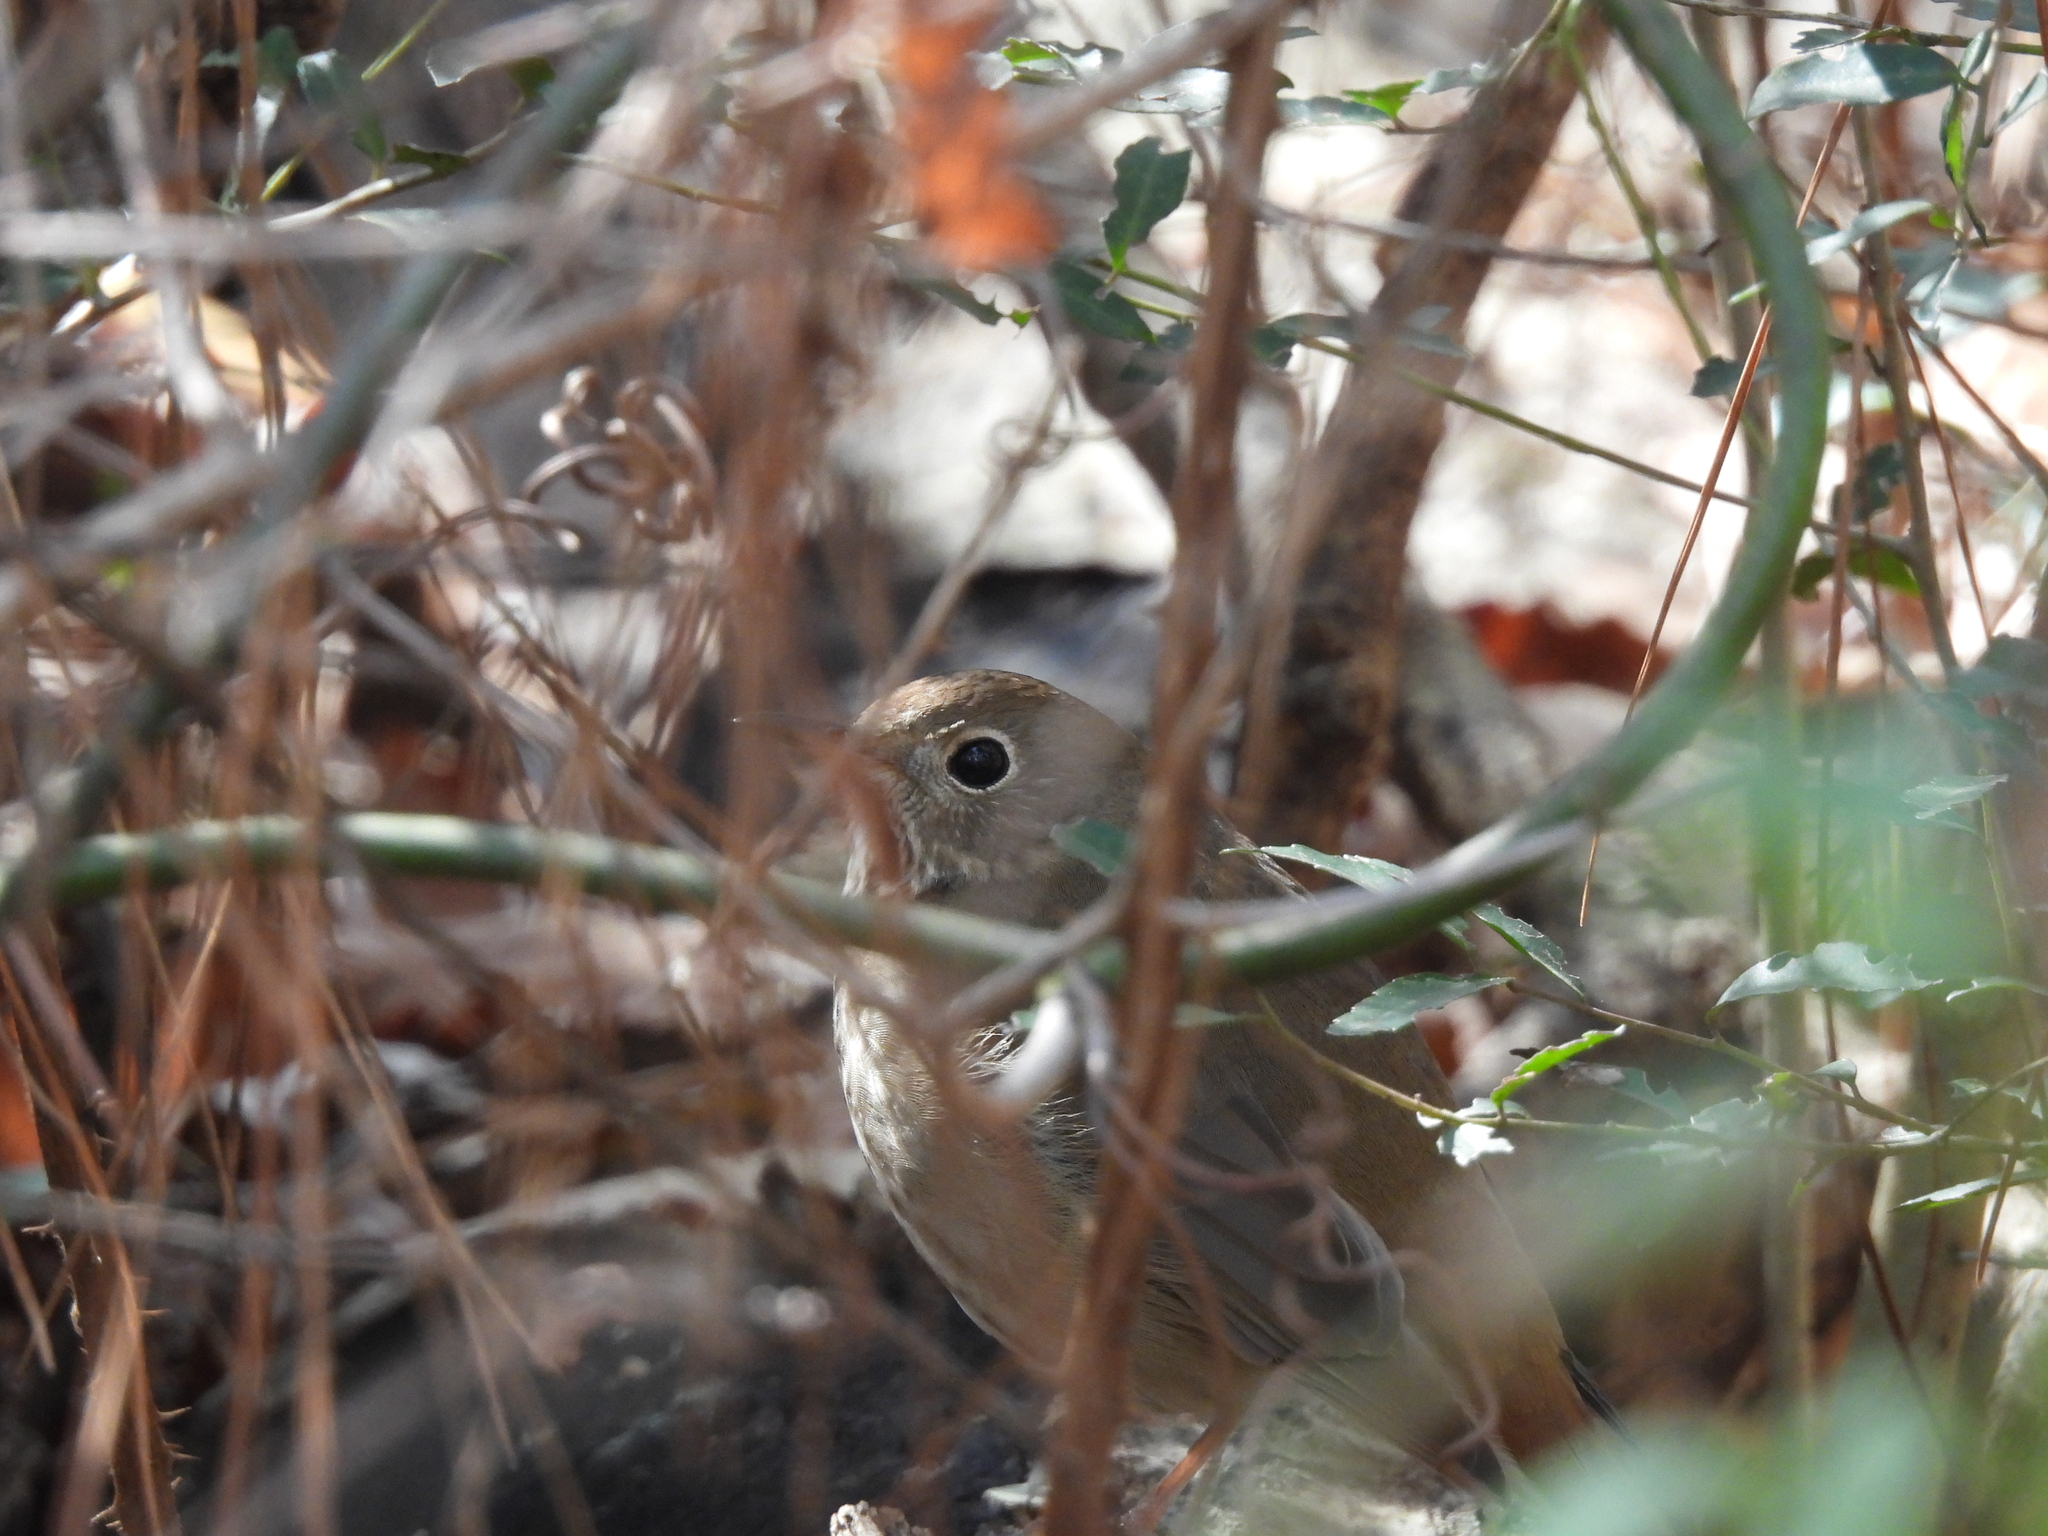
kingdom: Animalia
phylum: Chordata
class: Aves
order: Passeriformes
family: Turdidae
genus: Catharus
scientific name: Catharus guttatus
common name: Hermit thrush
